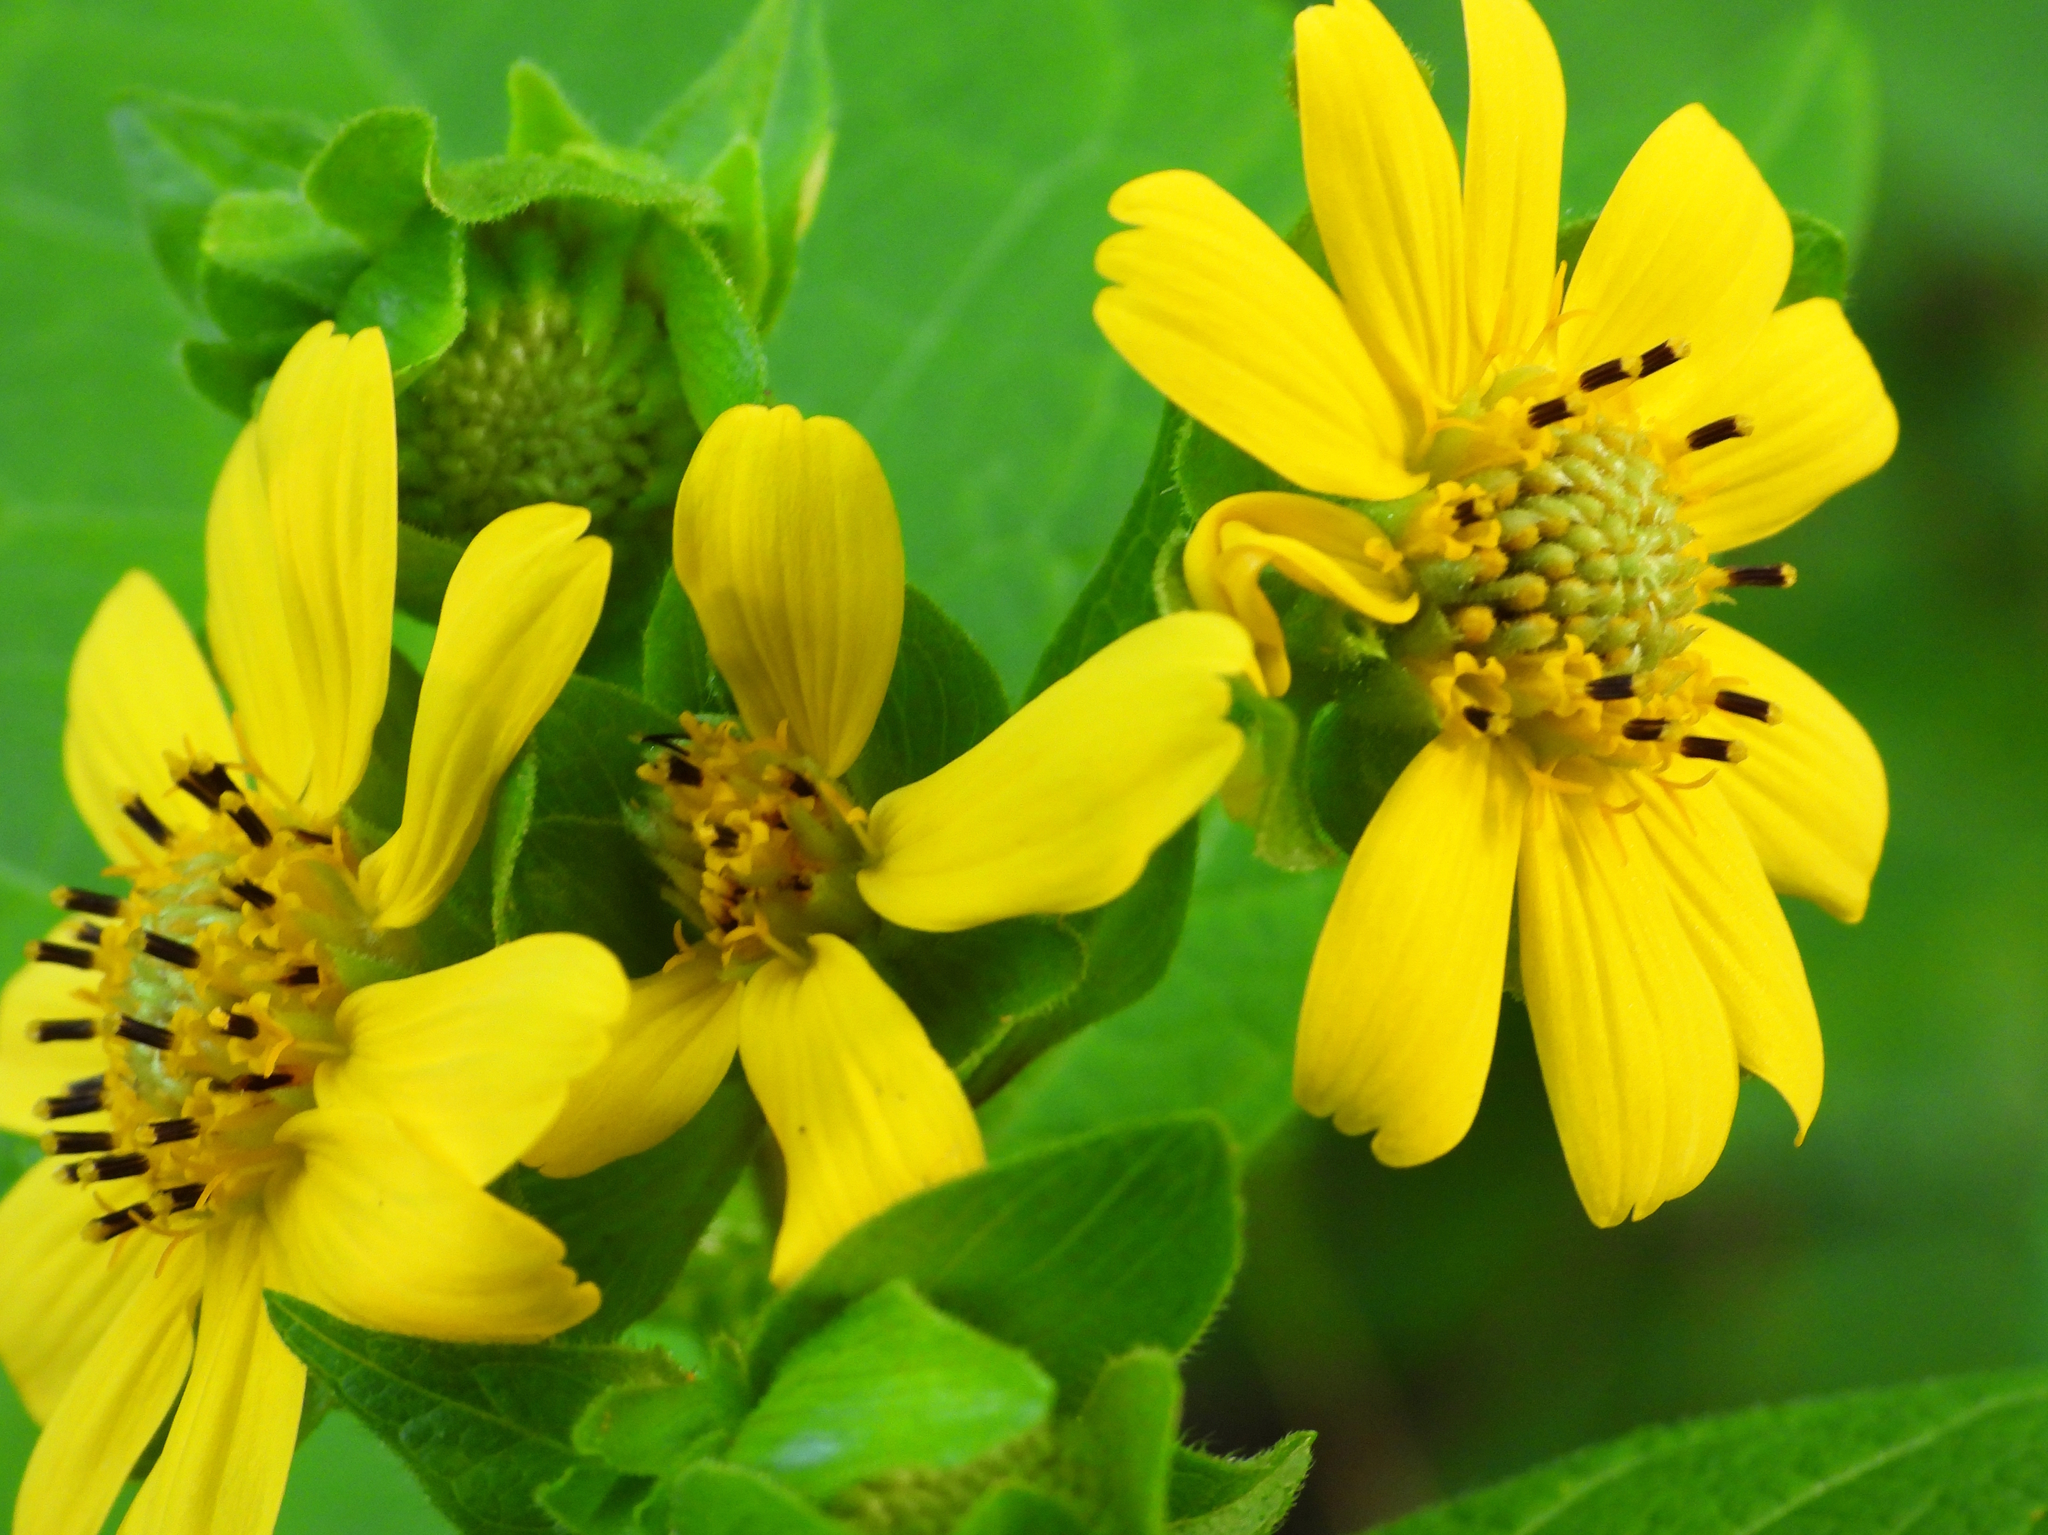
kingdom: Plantae
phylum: Tracheophyta
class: Magnoliopsida
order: Asterales
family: Asteraceae
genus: Smallanthus
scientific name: Smallanthus uvedalia
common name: Bear's-foot
